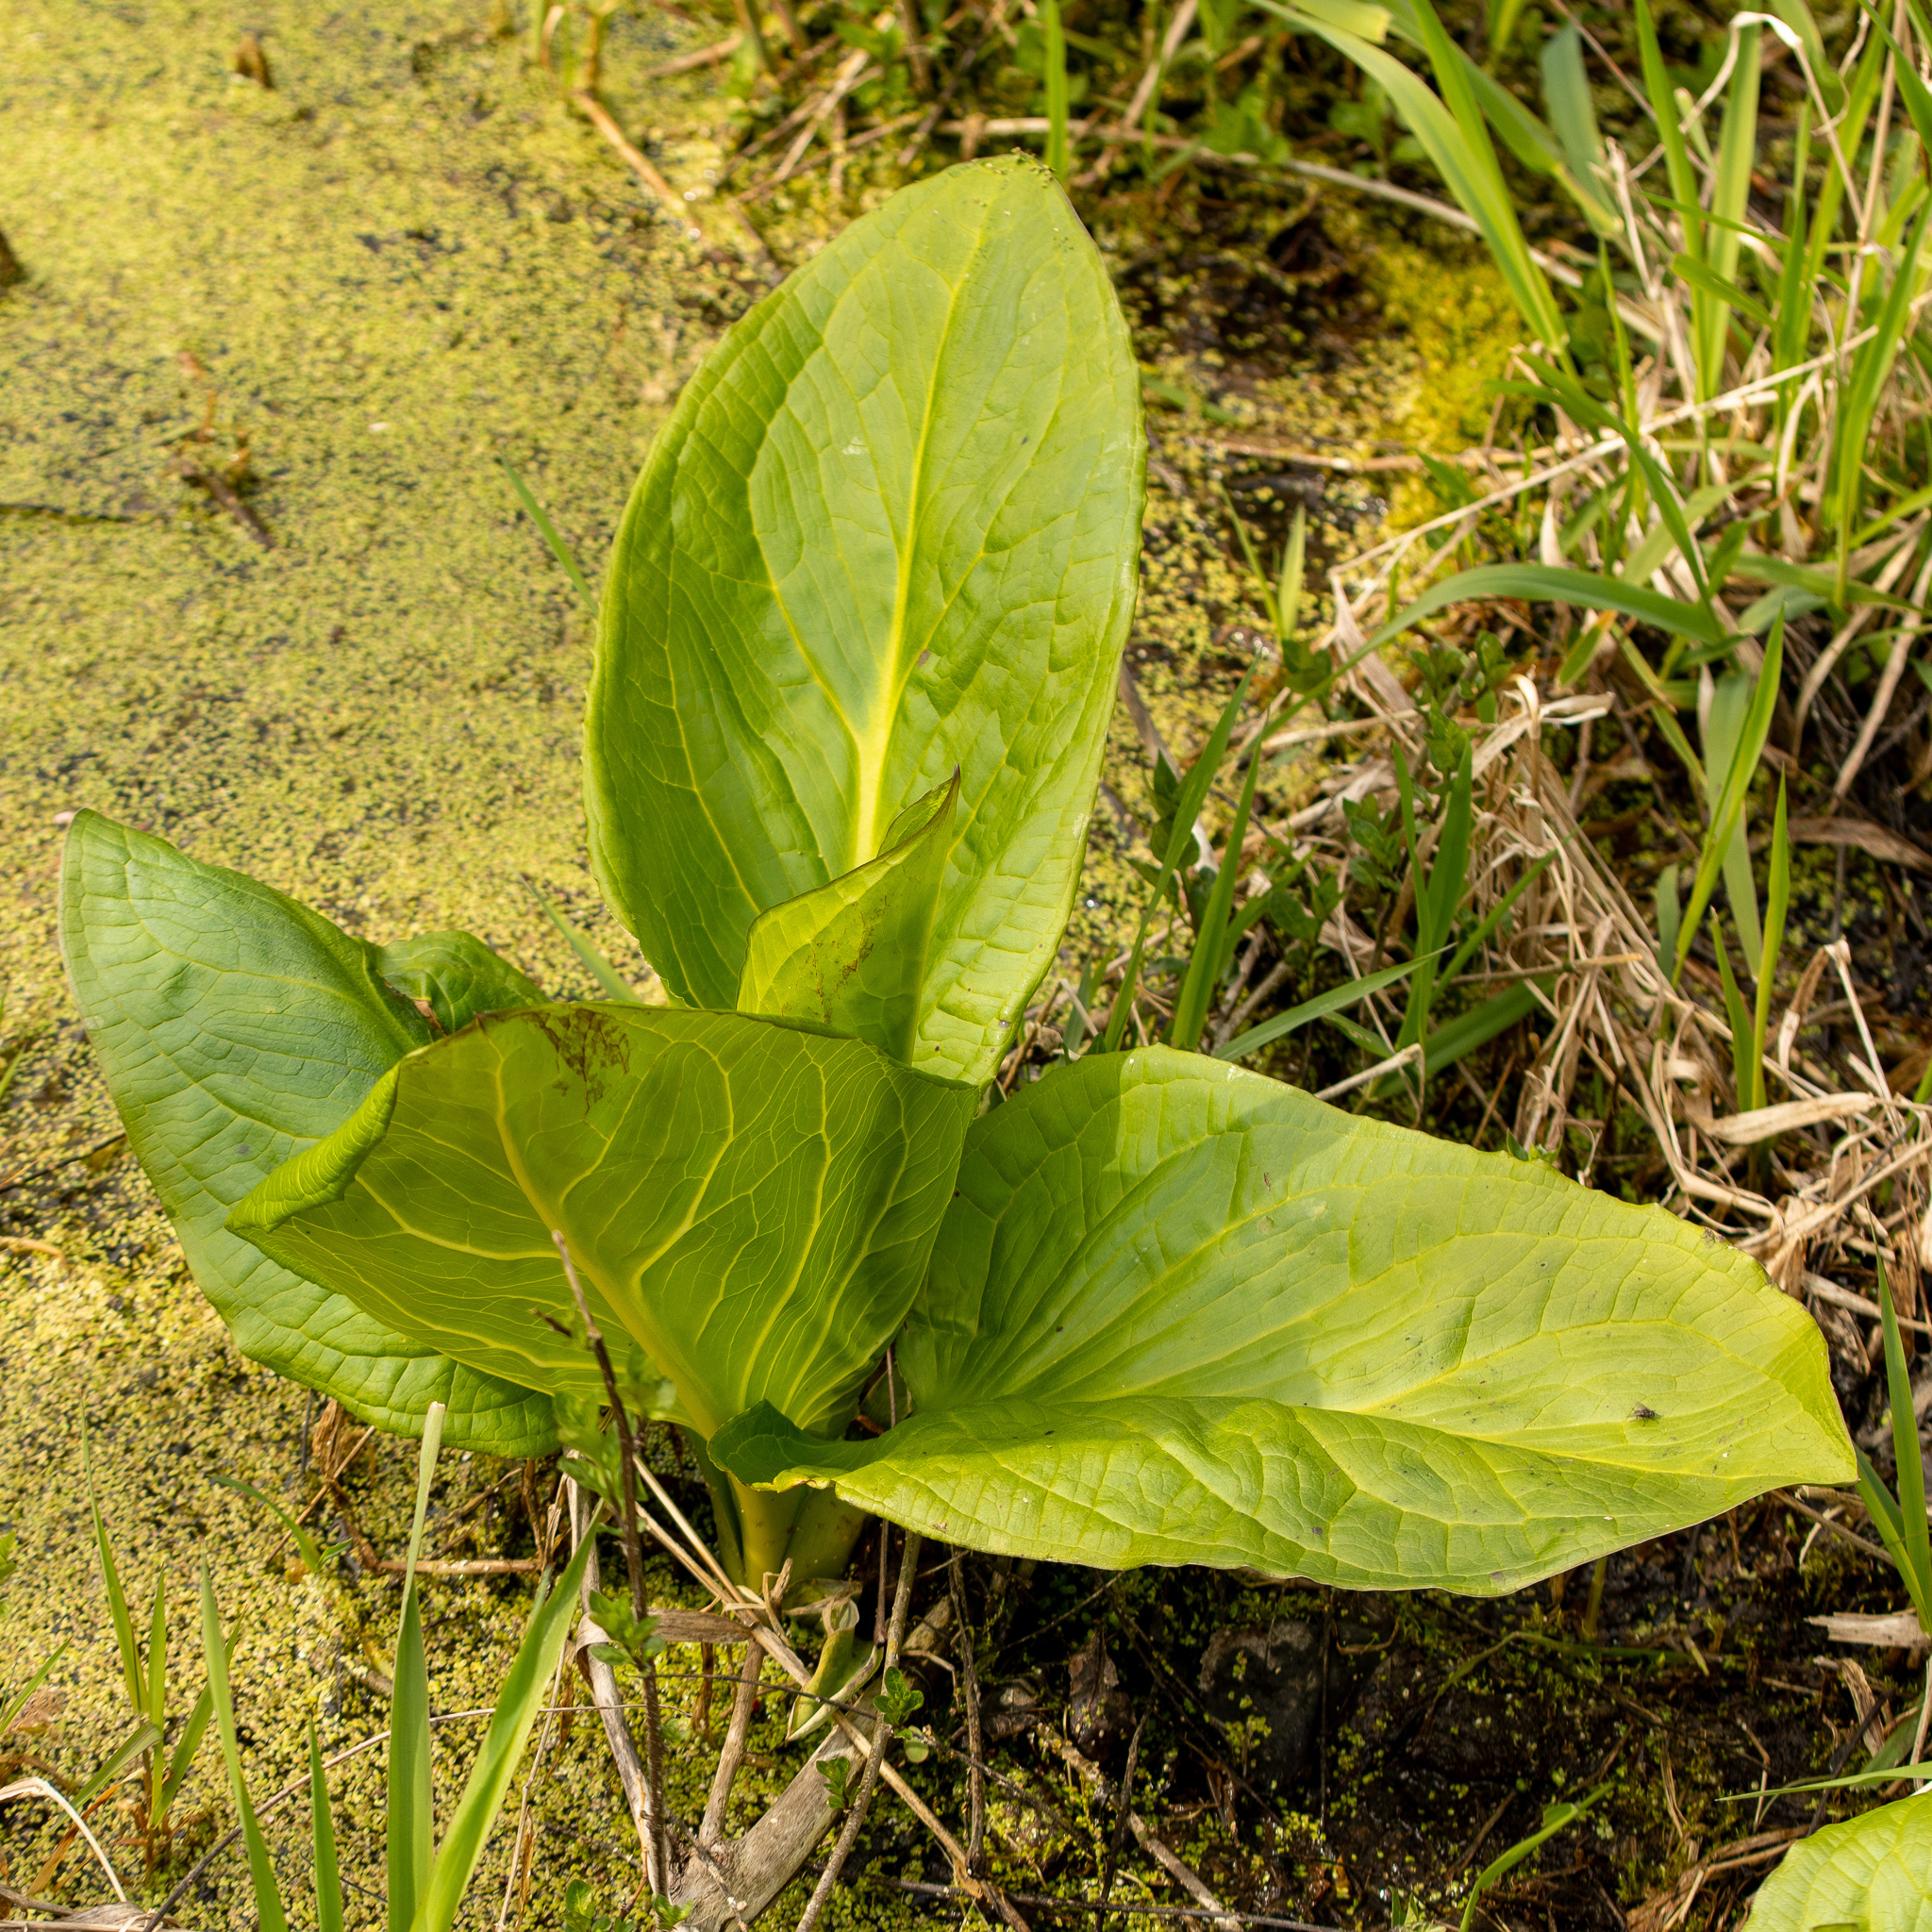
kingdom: Plantae
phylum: Tracheophyta
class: Liliopsida
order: Alismatales
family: Araceae
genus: Symplocarpus
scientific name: Symplocarpus foetidus
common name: Eastern skunk cabbage
